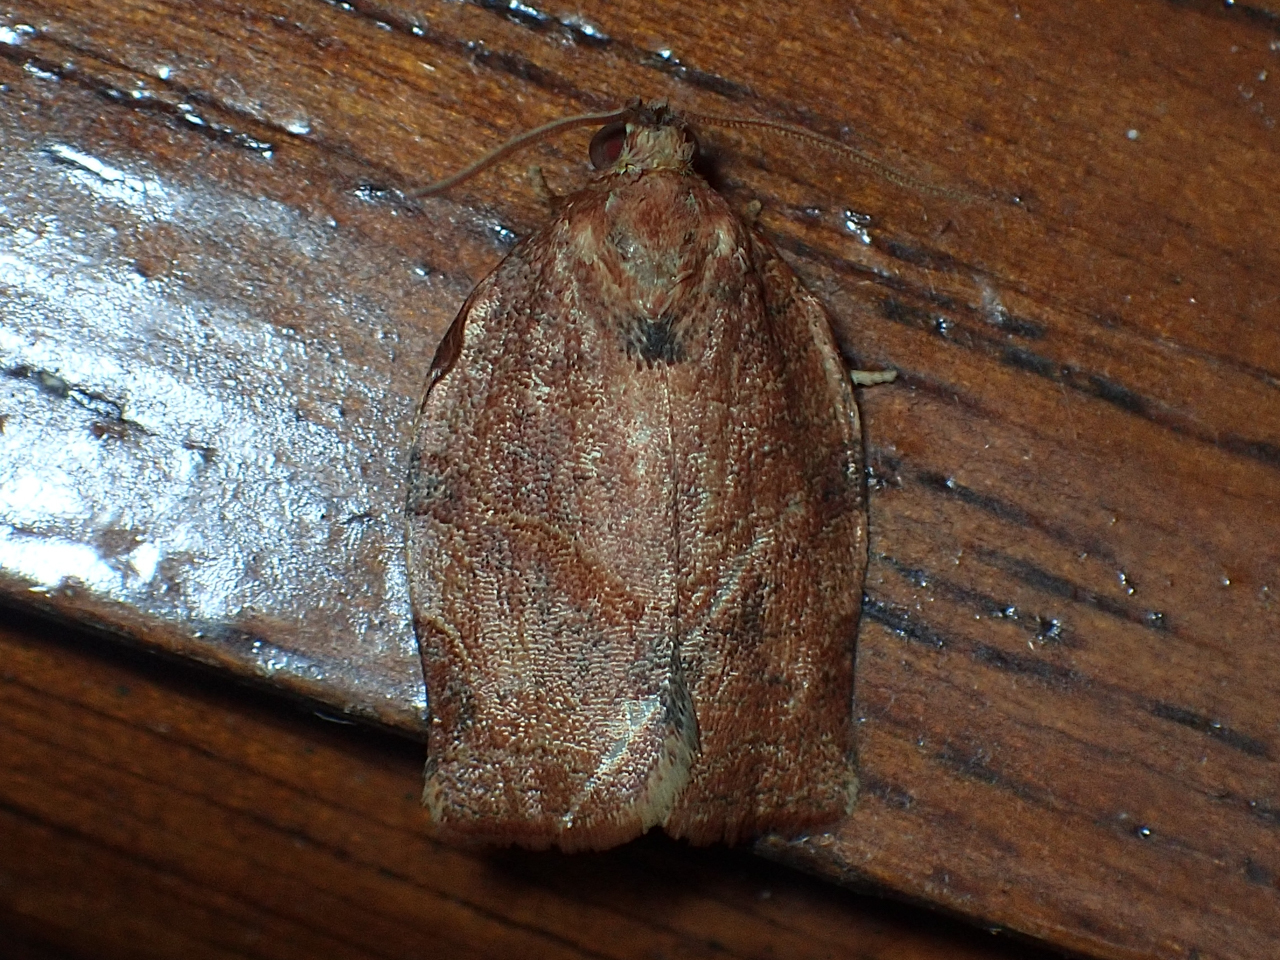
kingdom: Animalia
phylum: Arthropoda
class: Insecta
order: Lepidoptera
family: Tortricidae
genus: Choristoneura
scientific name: Choristoneura rosaceana
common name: Oblique-banded leafroller moth
